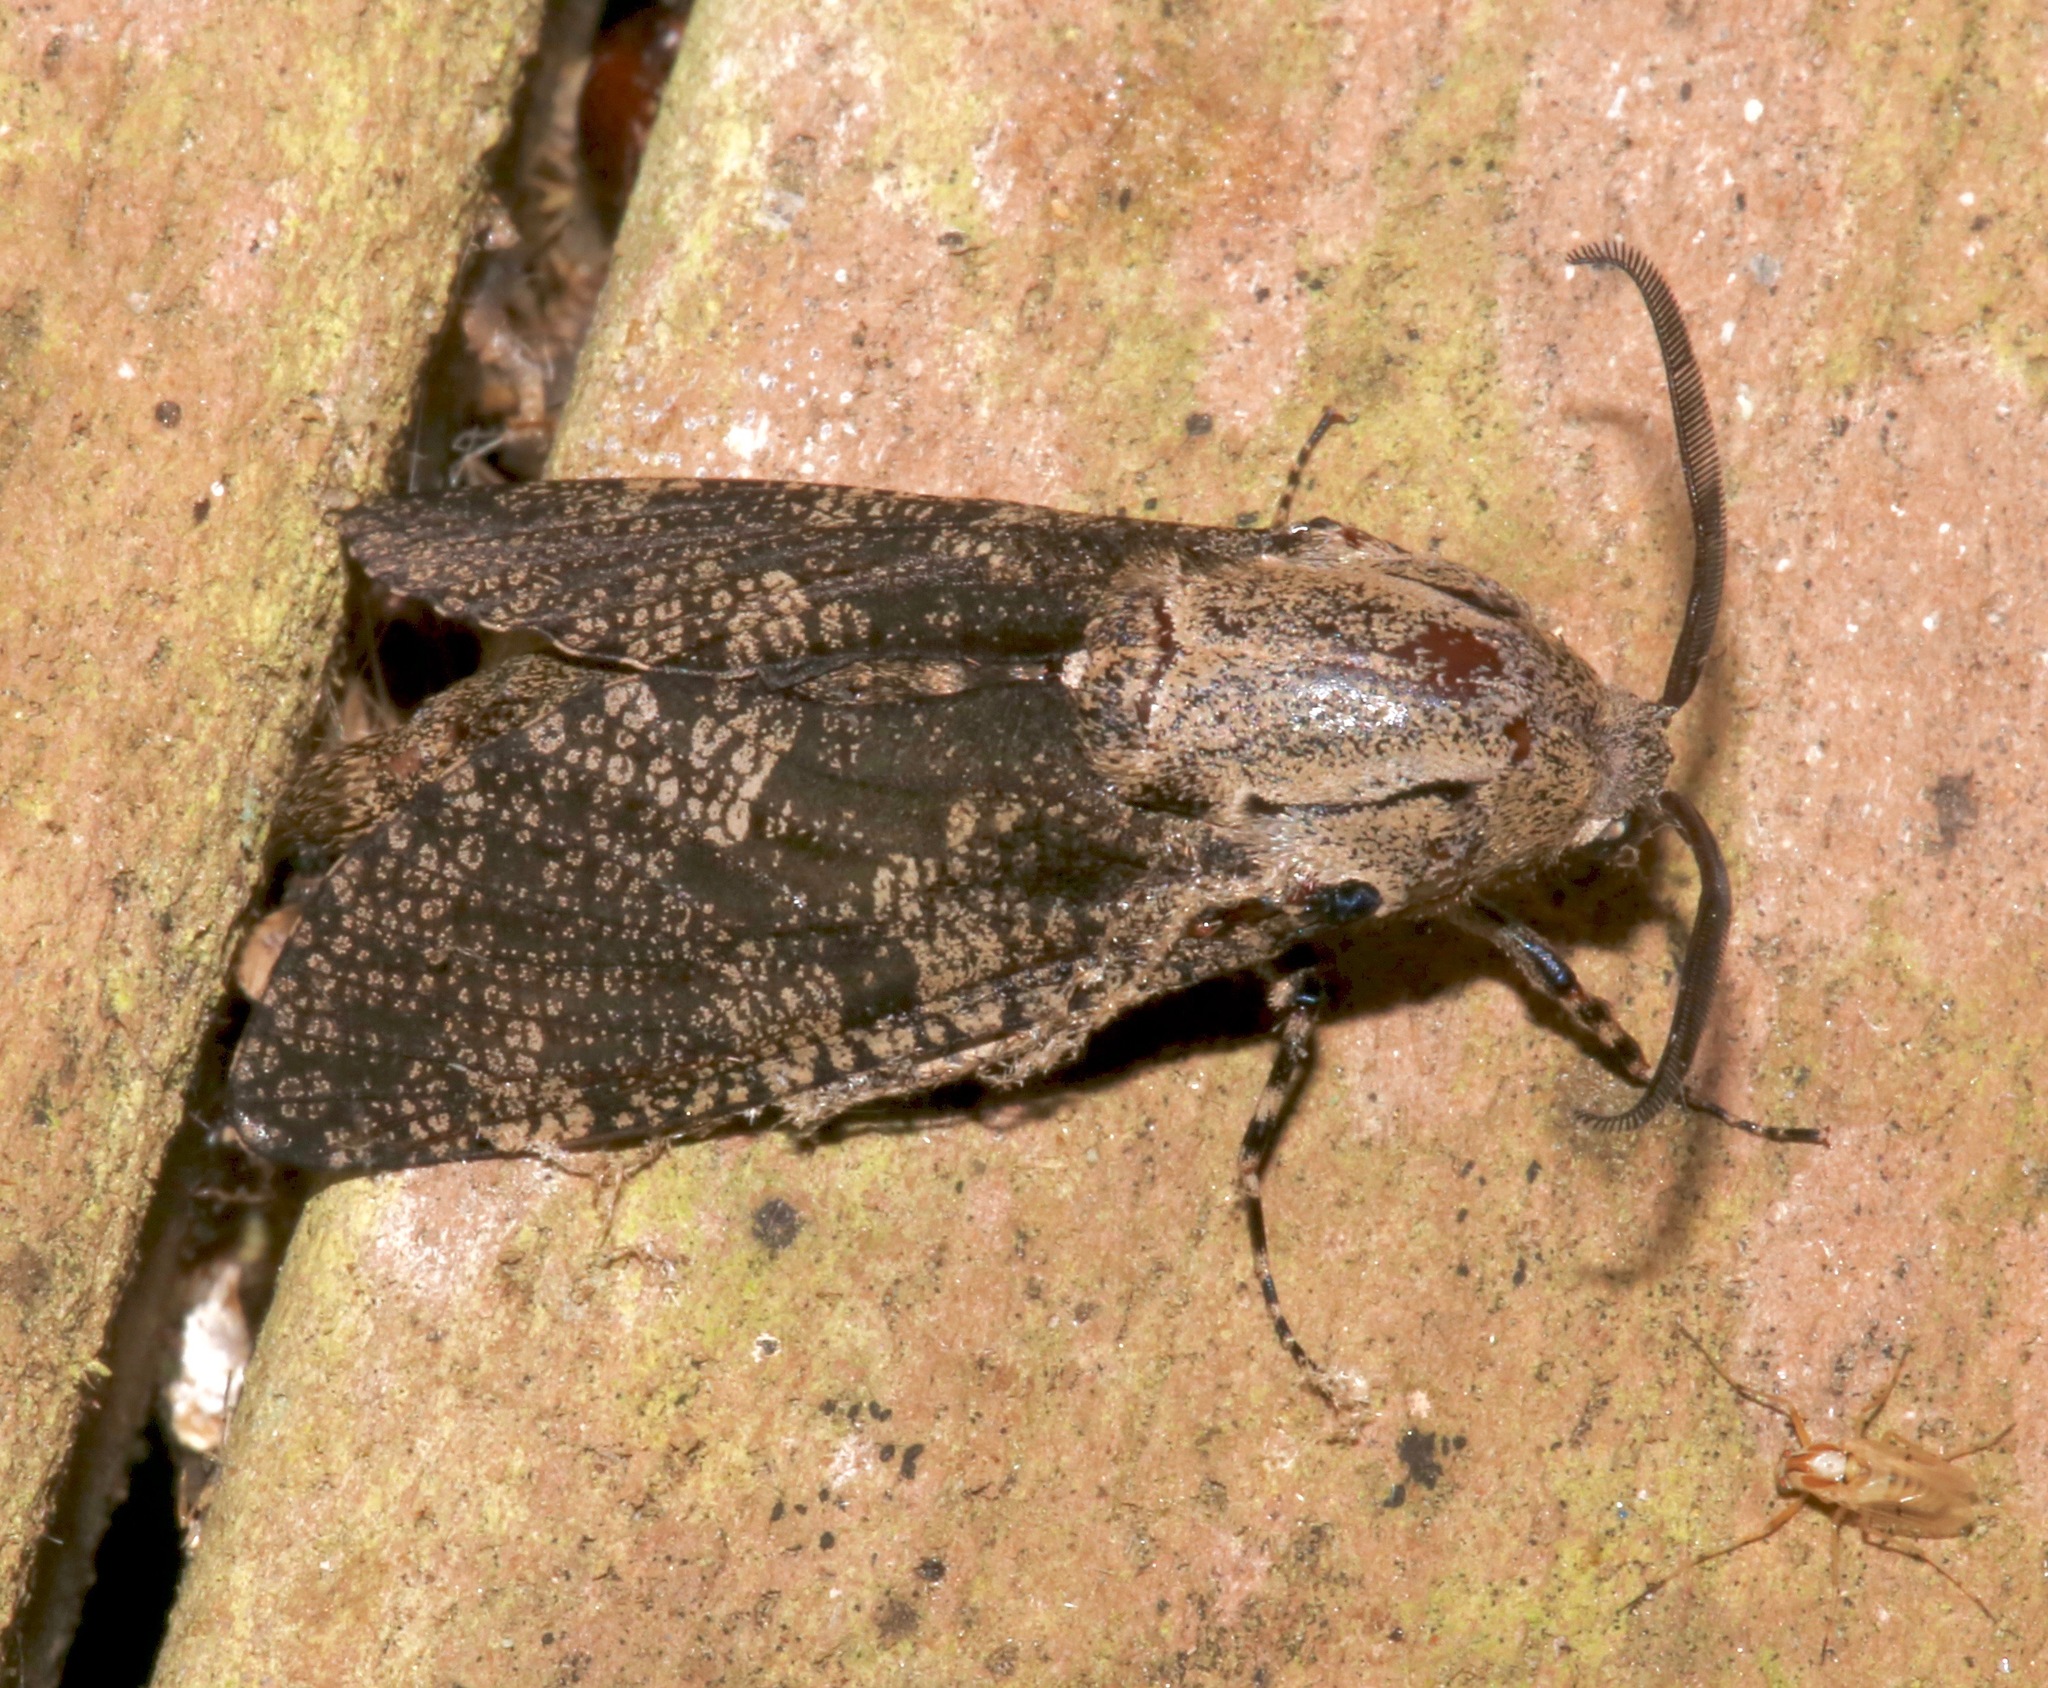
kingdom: Animalia
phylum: Arthropoda
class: Insecta
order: Lepidoptera
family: Cossidae
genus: Prionoxystus
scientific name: Prionoxystus robiniae
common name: Carpenterworm
